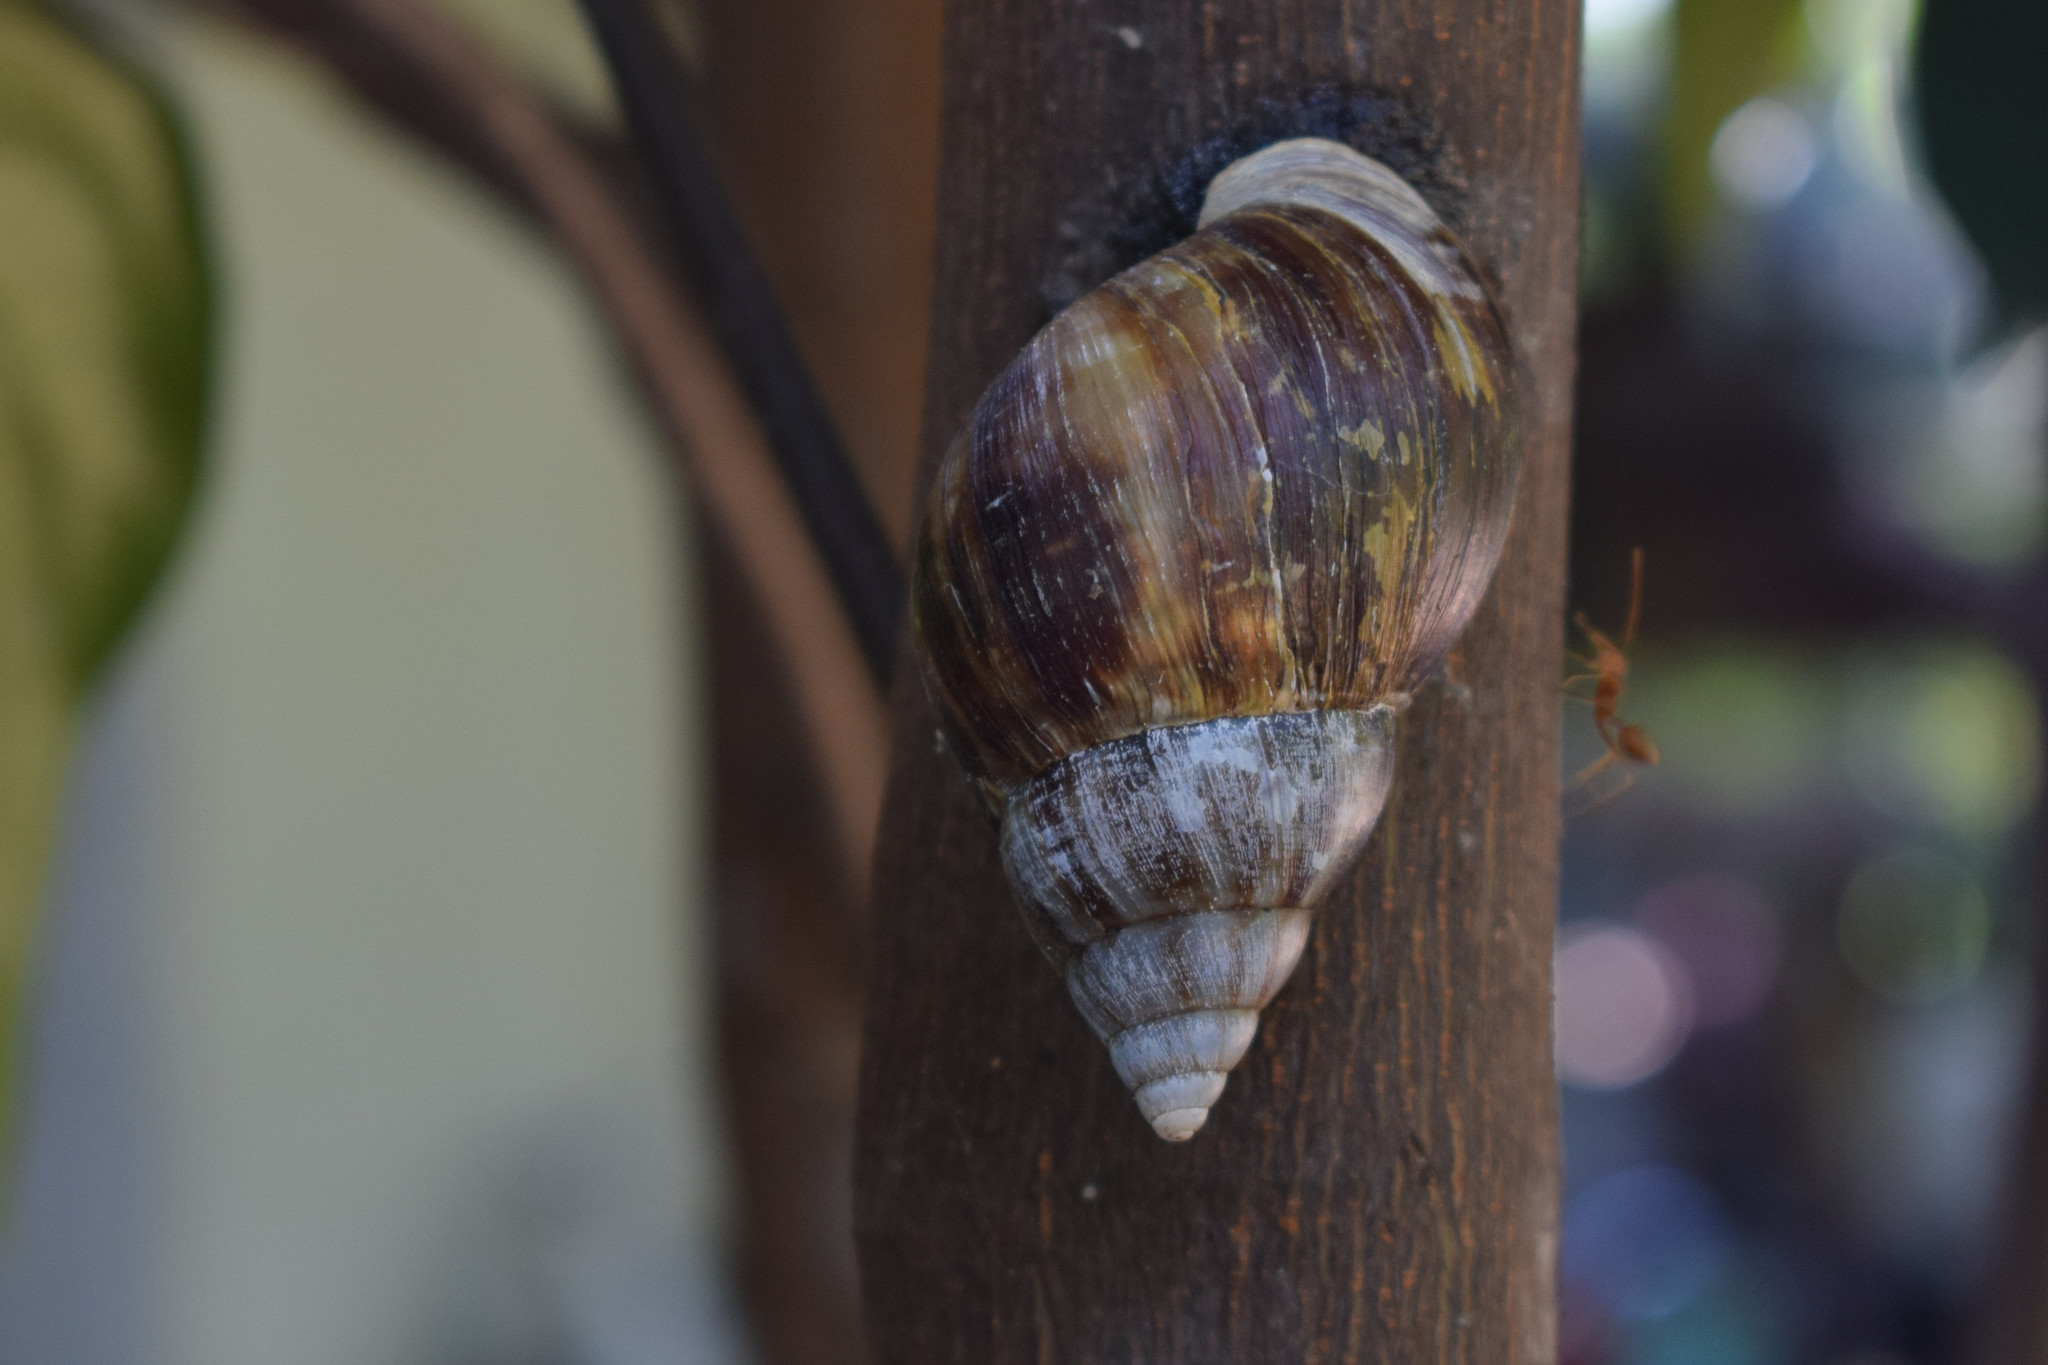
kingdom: Animalia
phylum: Mollusca
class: Gastropoda
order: Stylommatophora
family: Achatinidae
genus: Lissachatina
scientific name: Lissachatina fulica
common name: Giant african snail
